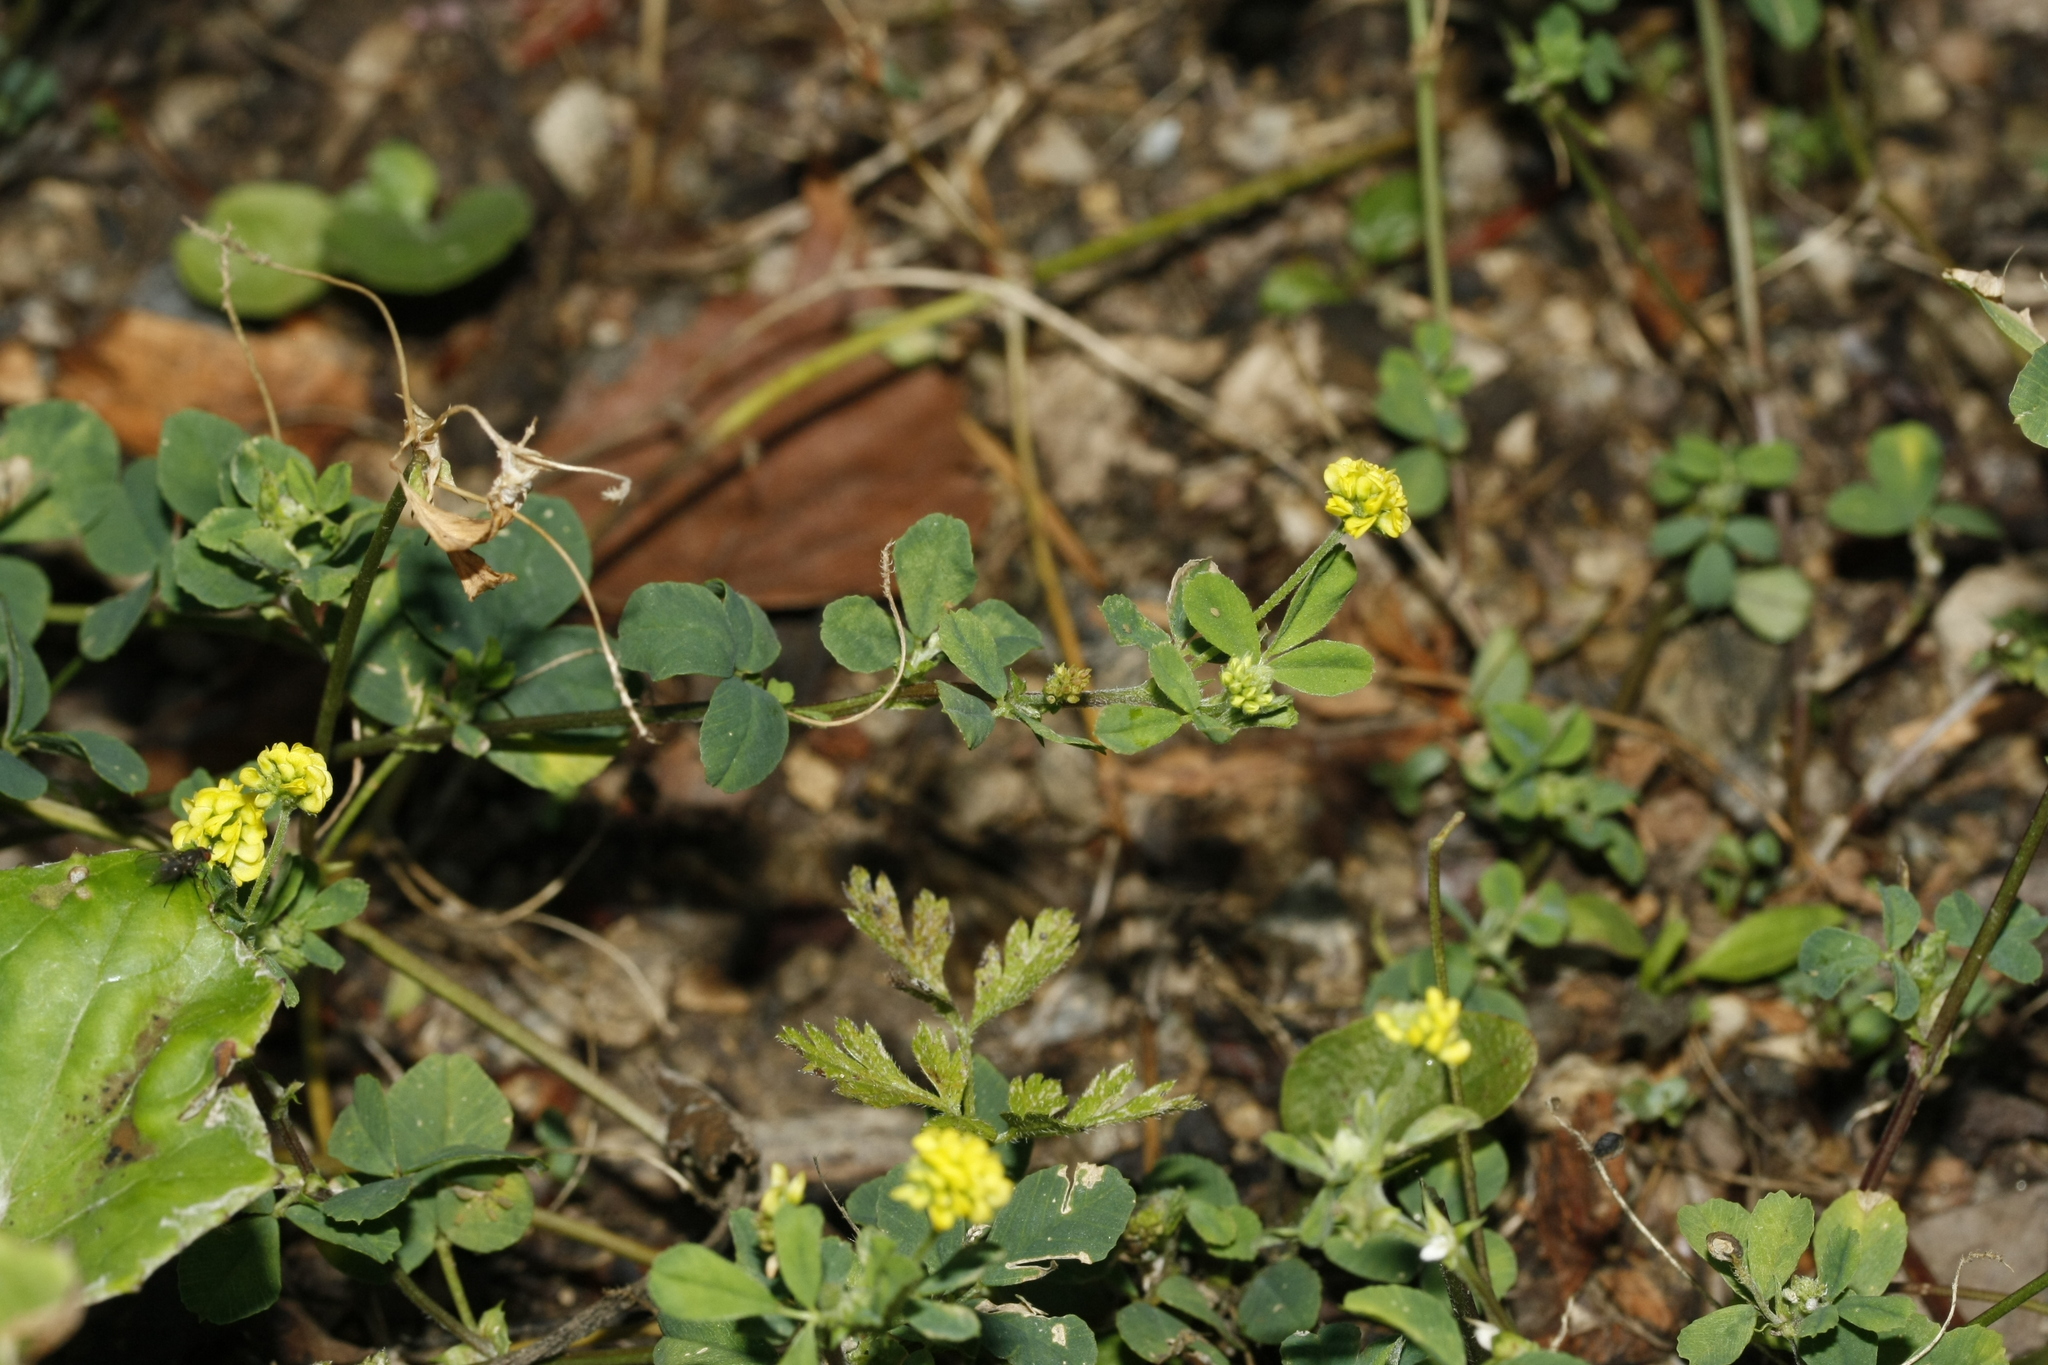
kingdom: Plantae
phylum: Tracheophyta
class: Magnoliopsida
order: Fabales
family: Fabaceae
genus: Medicago
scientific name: Medicago lupulina
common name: Black medick
